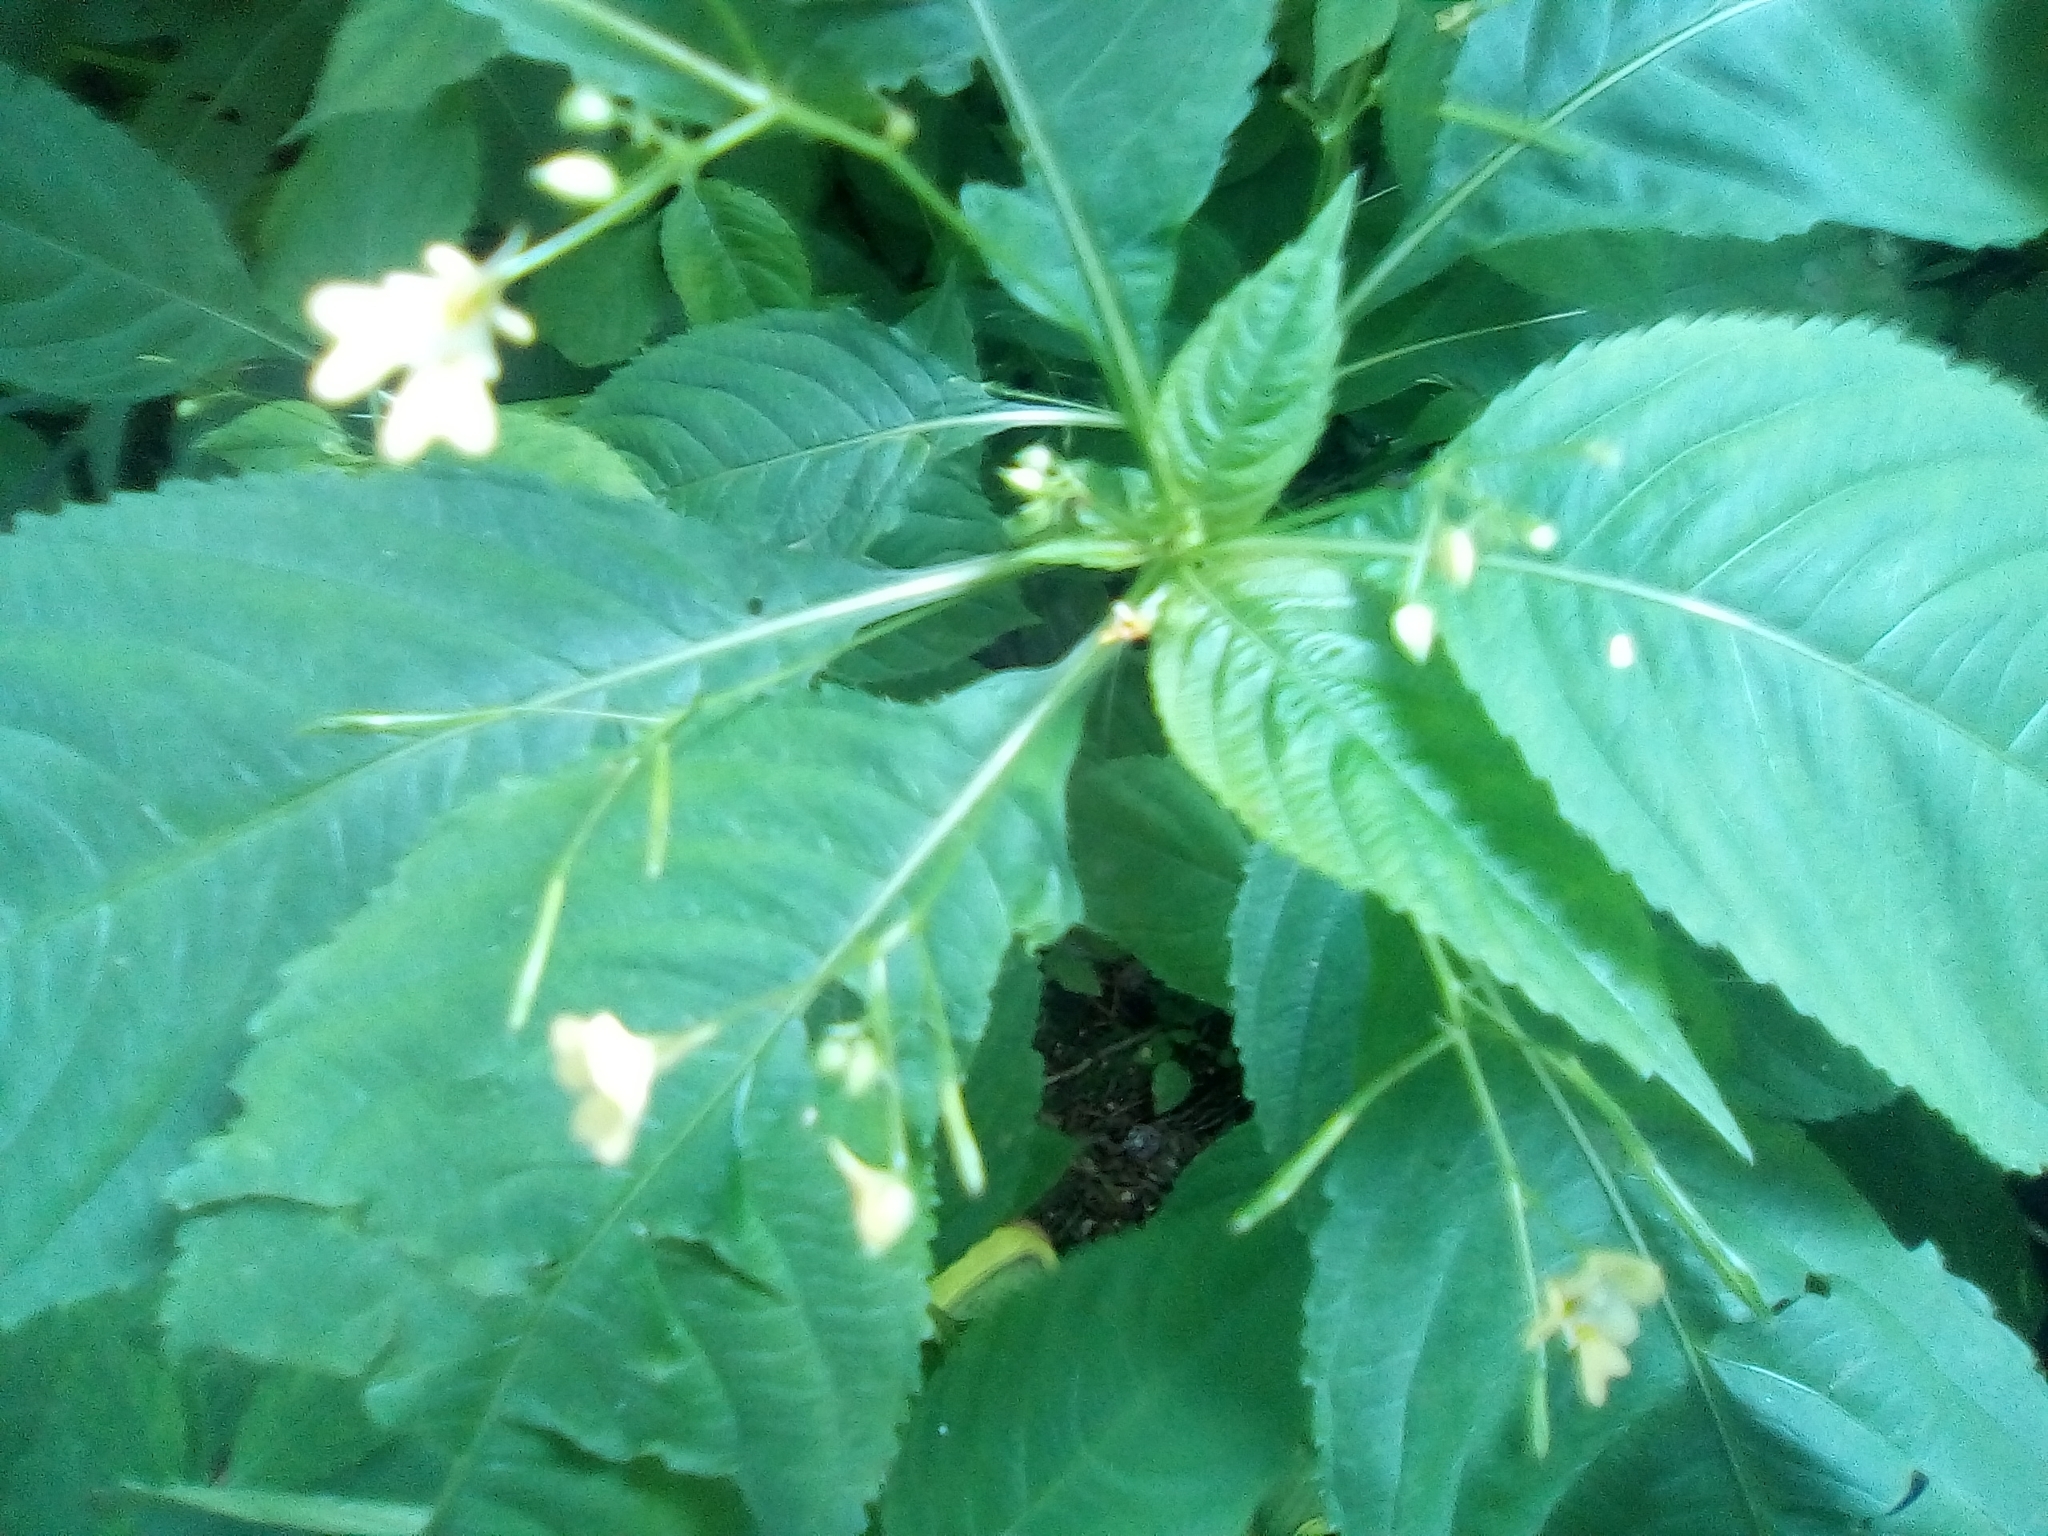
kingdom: Plantae
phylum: Tracheophyta
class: Magnoliopsida
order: Ericales
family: Balsaminaceae
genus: Impatiens
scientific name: Impatiens parviflora
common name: Small balsam
